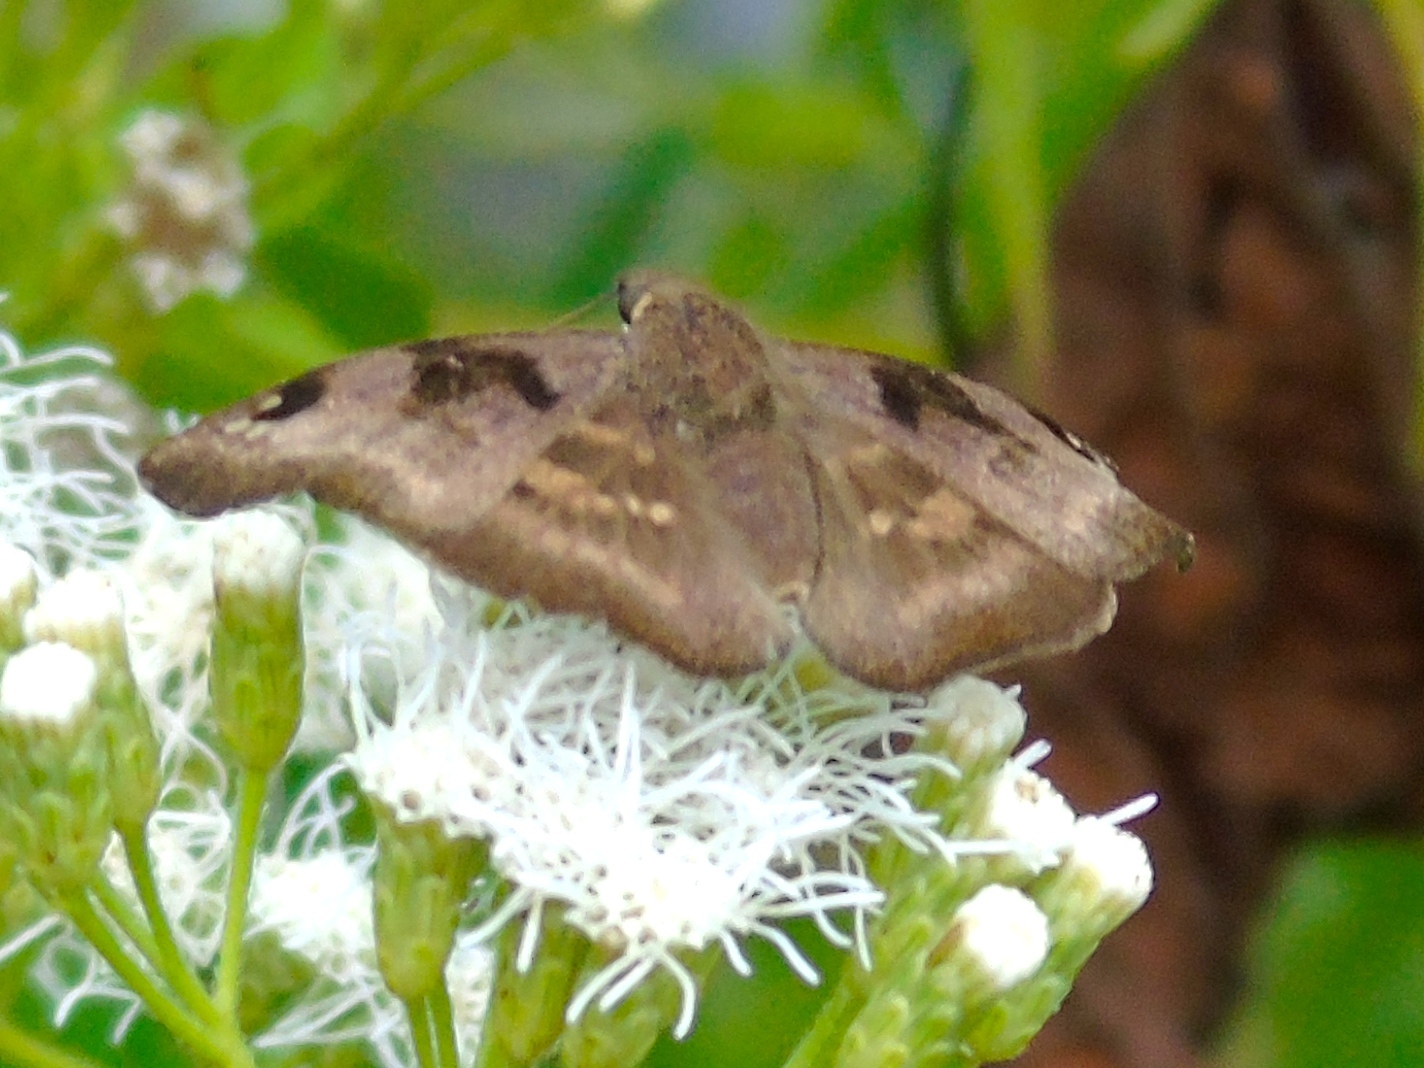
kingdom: Animalia
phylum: Arthropoda
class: Insecta
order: Lepidoptera
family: Hesperiidae
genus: Arteurotia
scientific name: Arteurotia tractipennis
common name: Starred skipper
